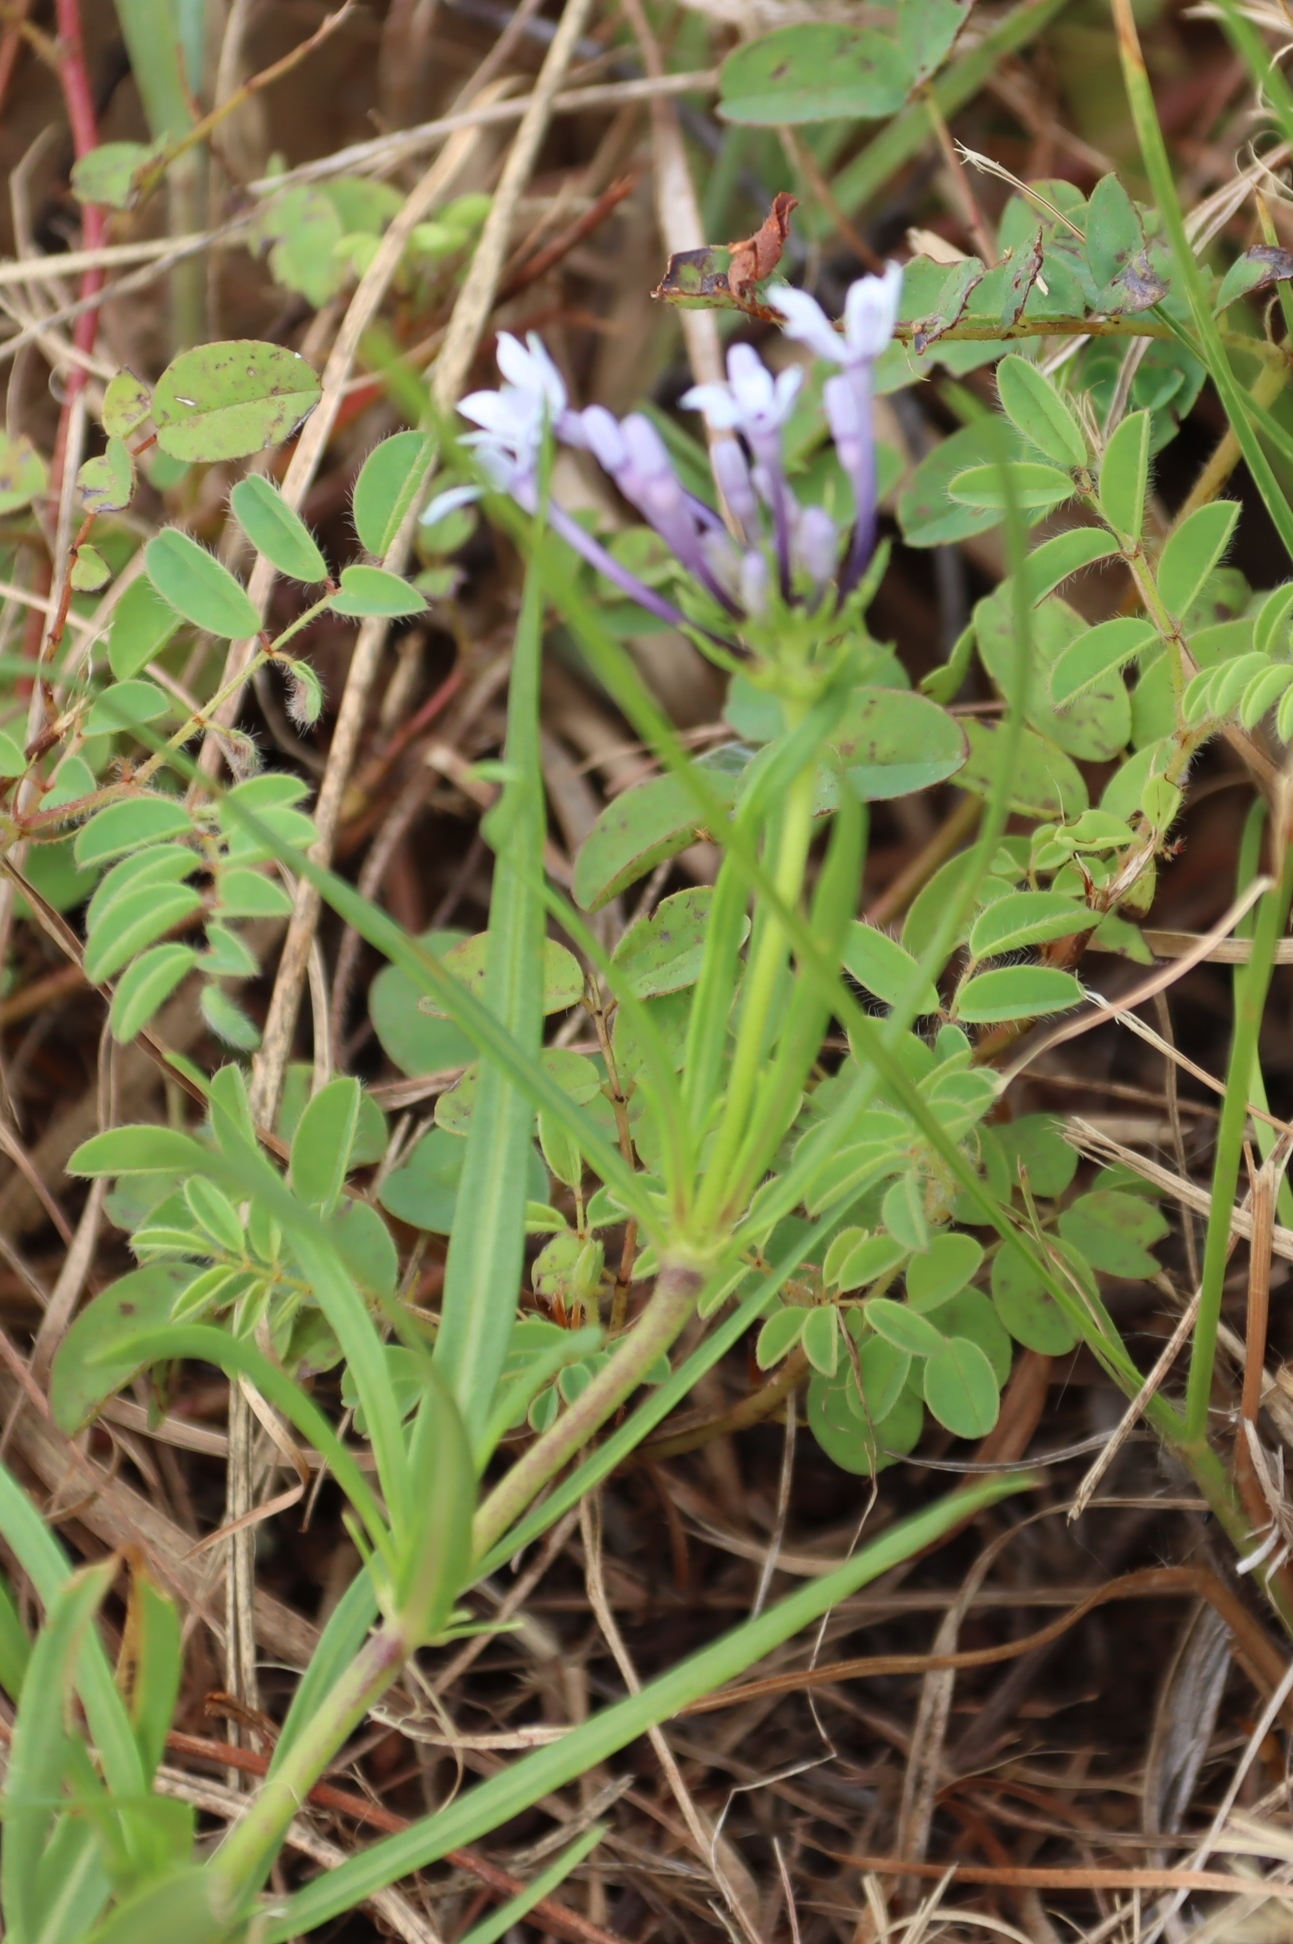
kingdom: Plantae
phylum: Tracheophyta
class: Magnoliopsida
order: Gentianales
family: Rubiaceae
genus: Pentanisia
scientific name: Pentanisia angustifolia
